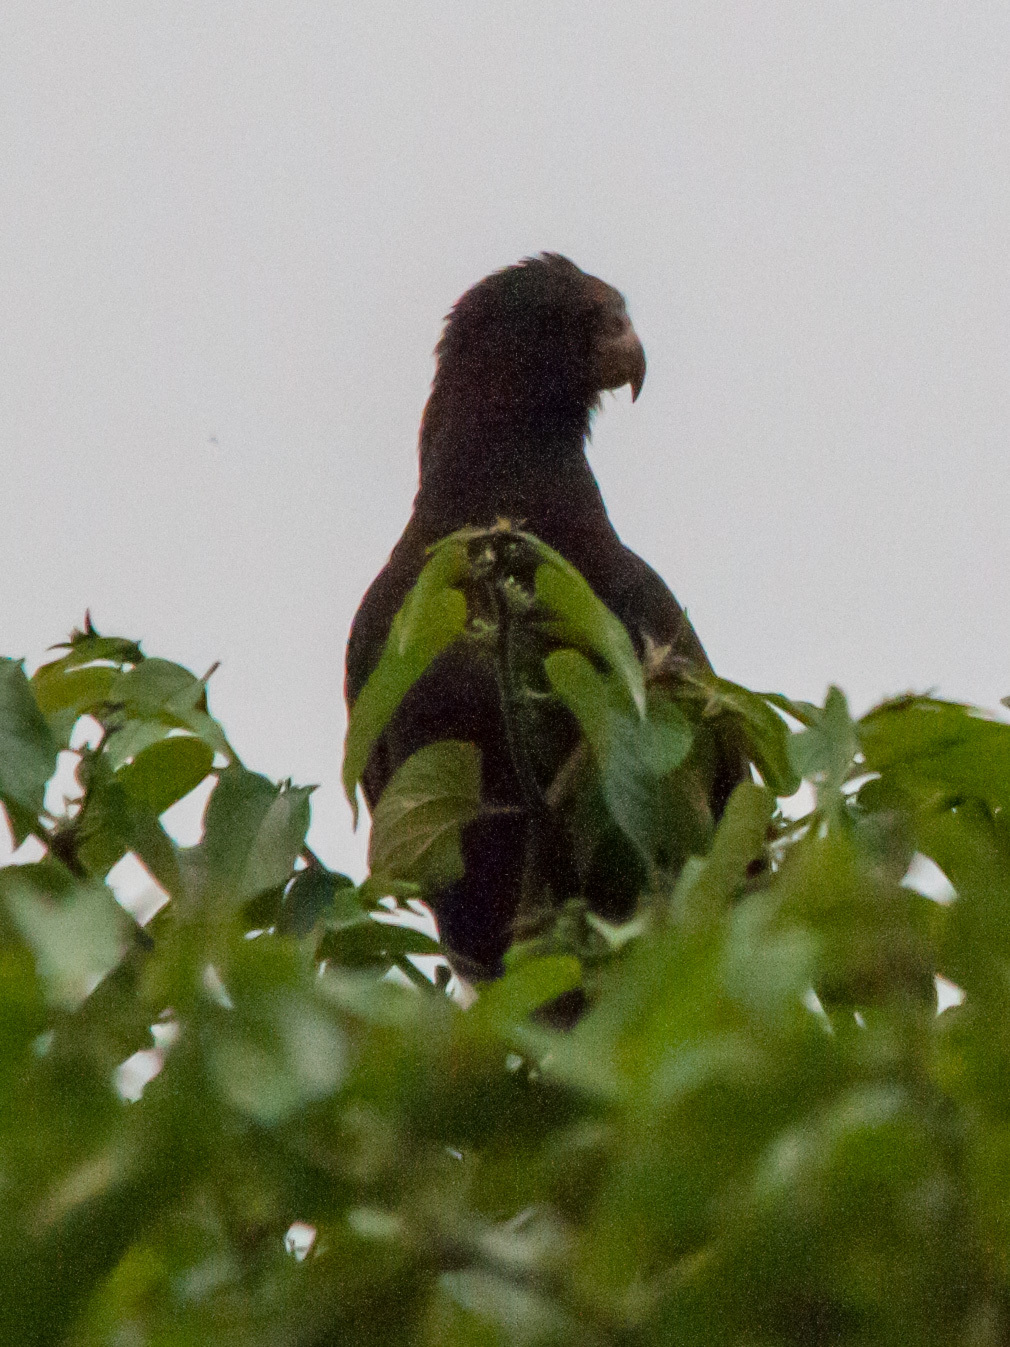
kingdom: Animalia
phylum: Chordata
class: Aves
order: Psittaciformes
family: Psittacidae
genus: Coracopsis
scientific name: Coracopsis nigra
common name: Lesser vasa parrot
